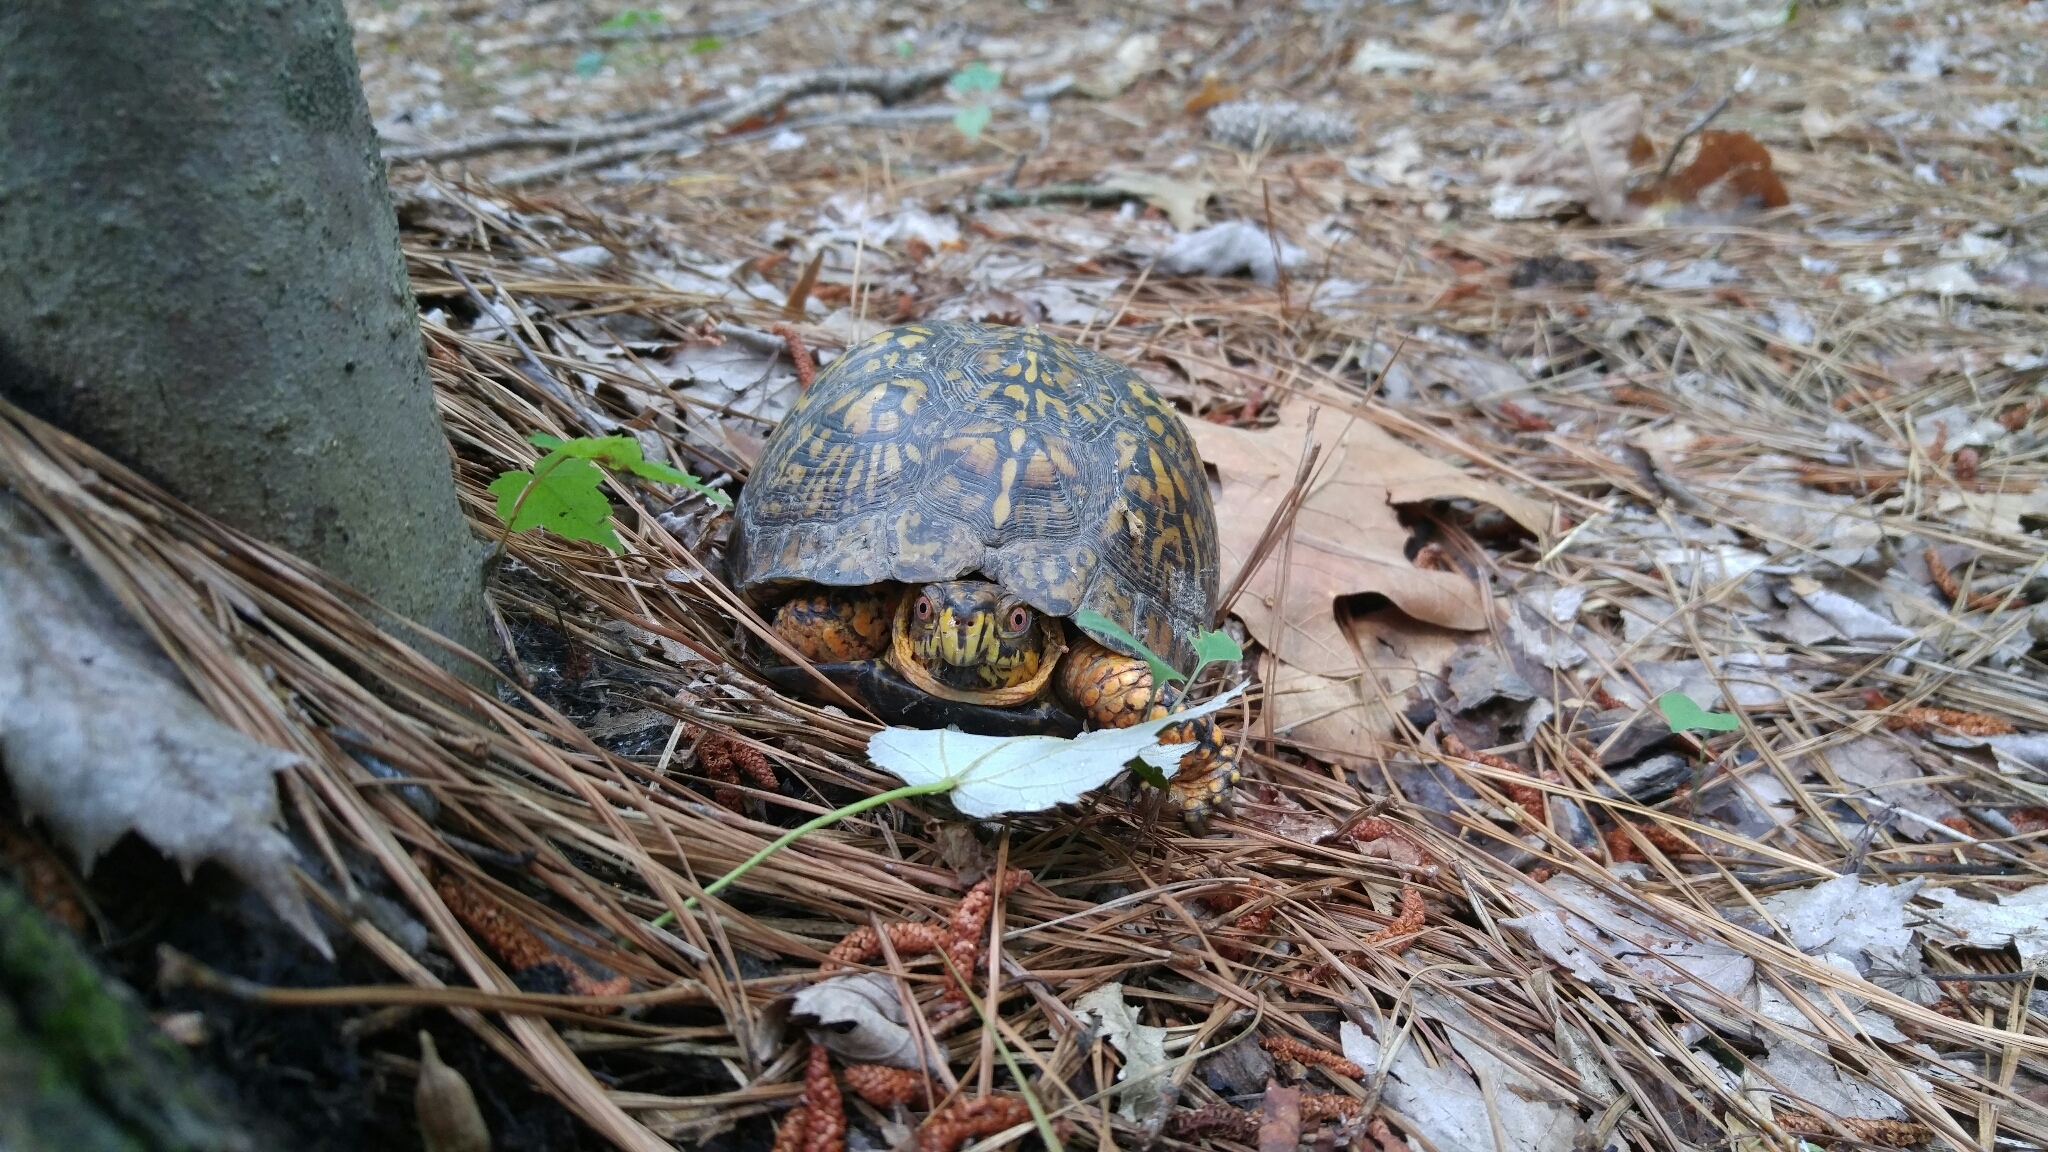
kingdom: Animalia
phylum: Chordata
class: Testudines
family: Emydidae
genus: Terrapene
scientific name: Terrapene carolina
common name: Common box turtle
